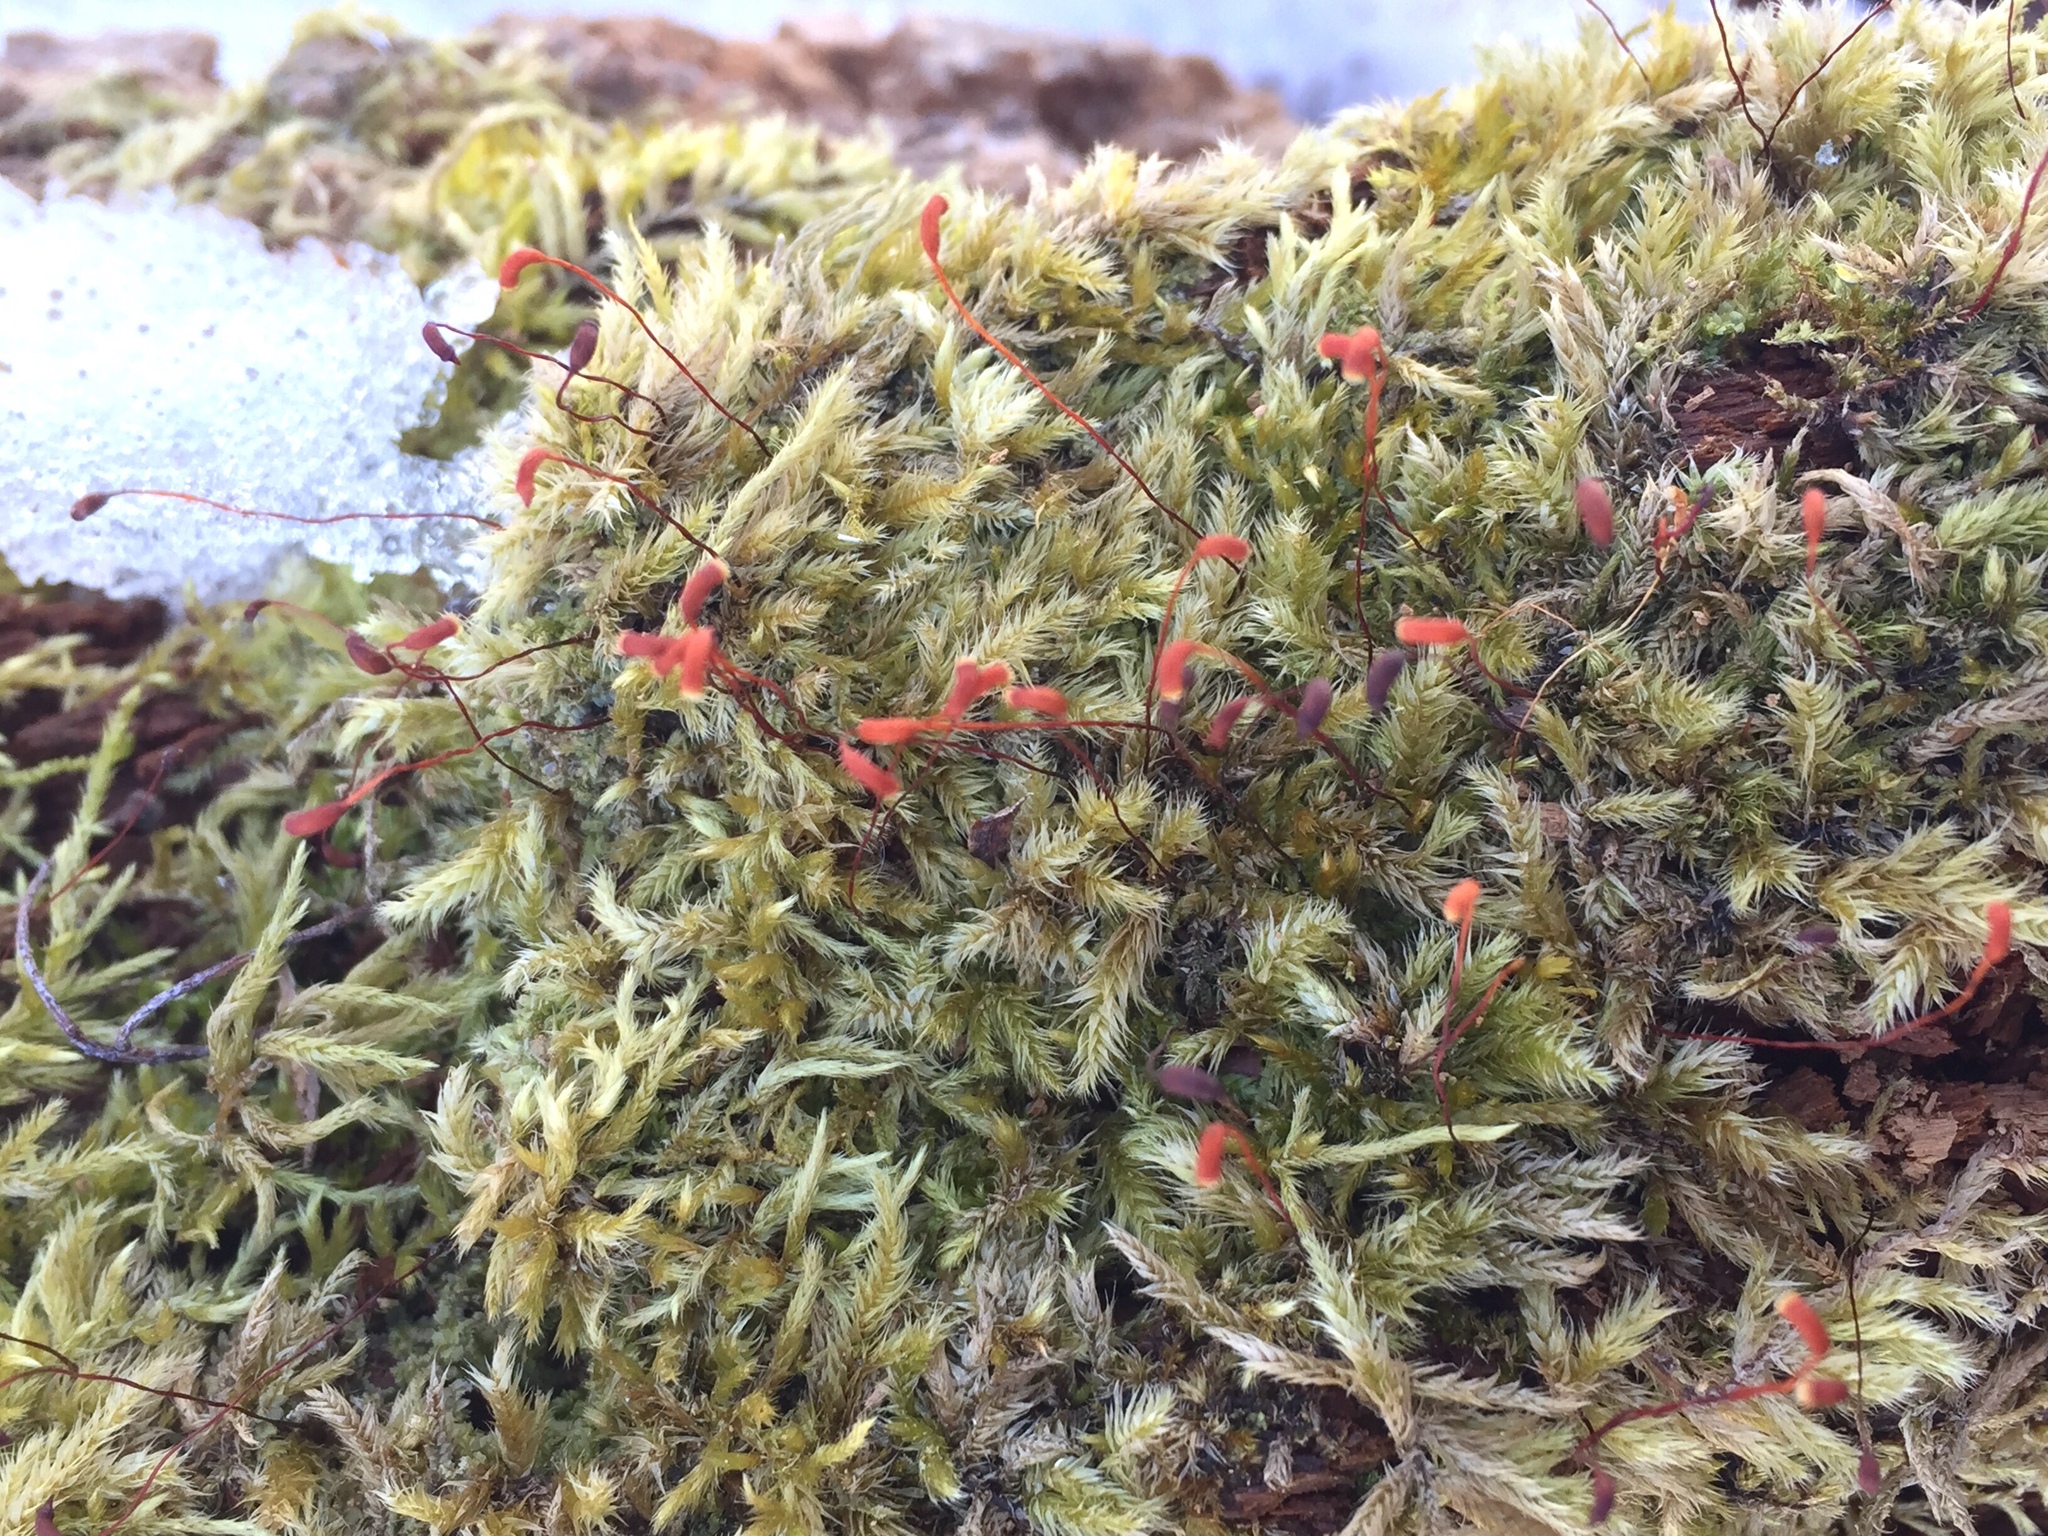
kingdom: Plantae
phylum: Bryophyta
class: Bryopsida
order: Hypnales
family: Callicladiaceae
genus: Callicladium
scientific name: Callicladium haldanianum
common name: Beautiful branch moss
